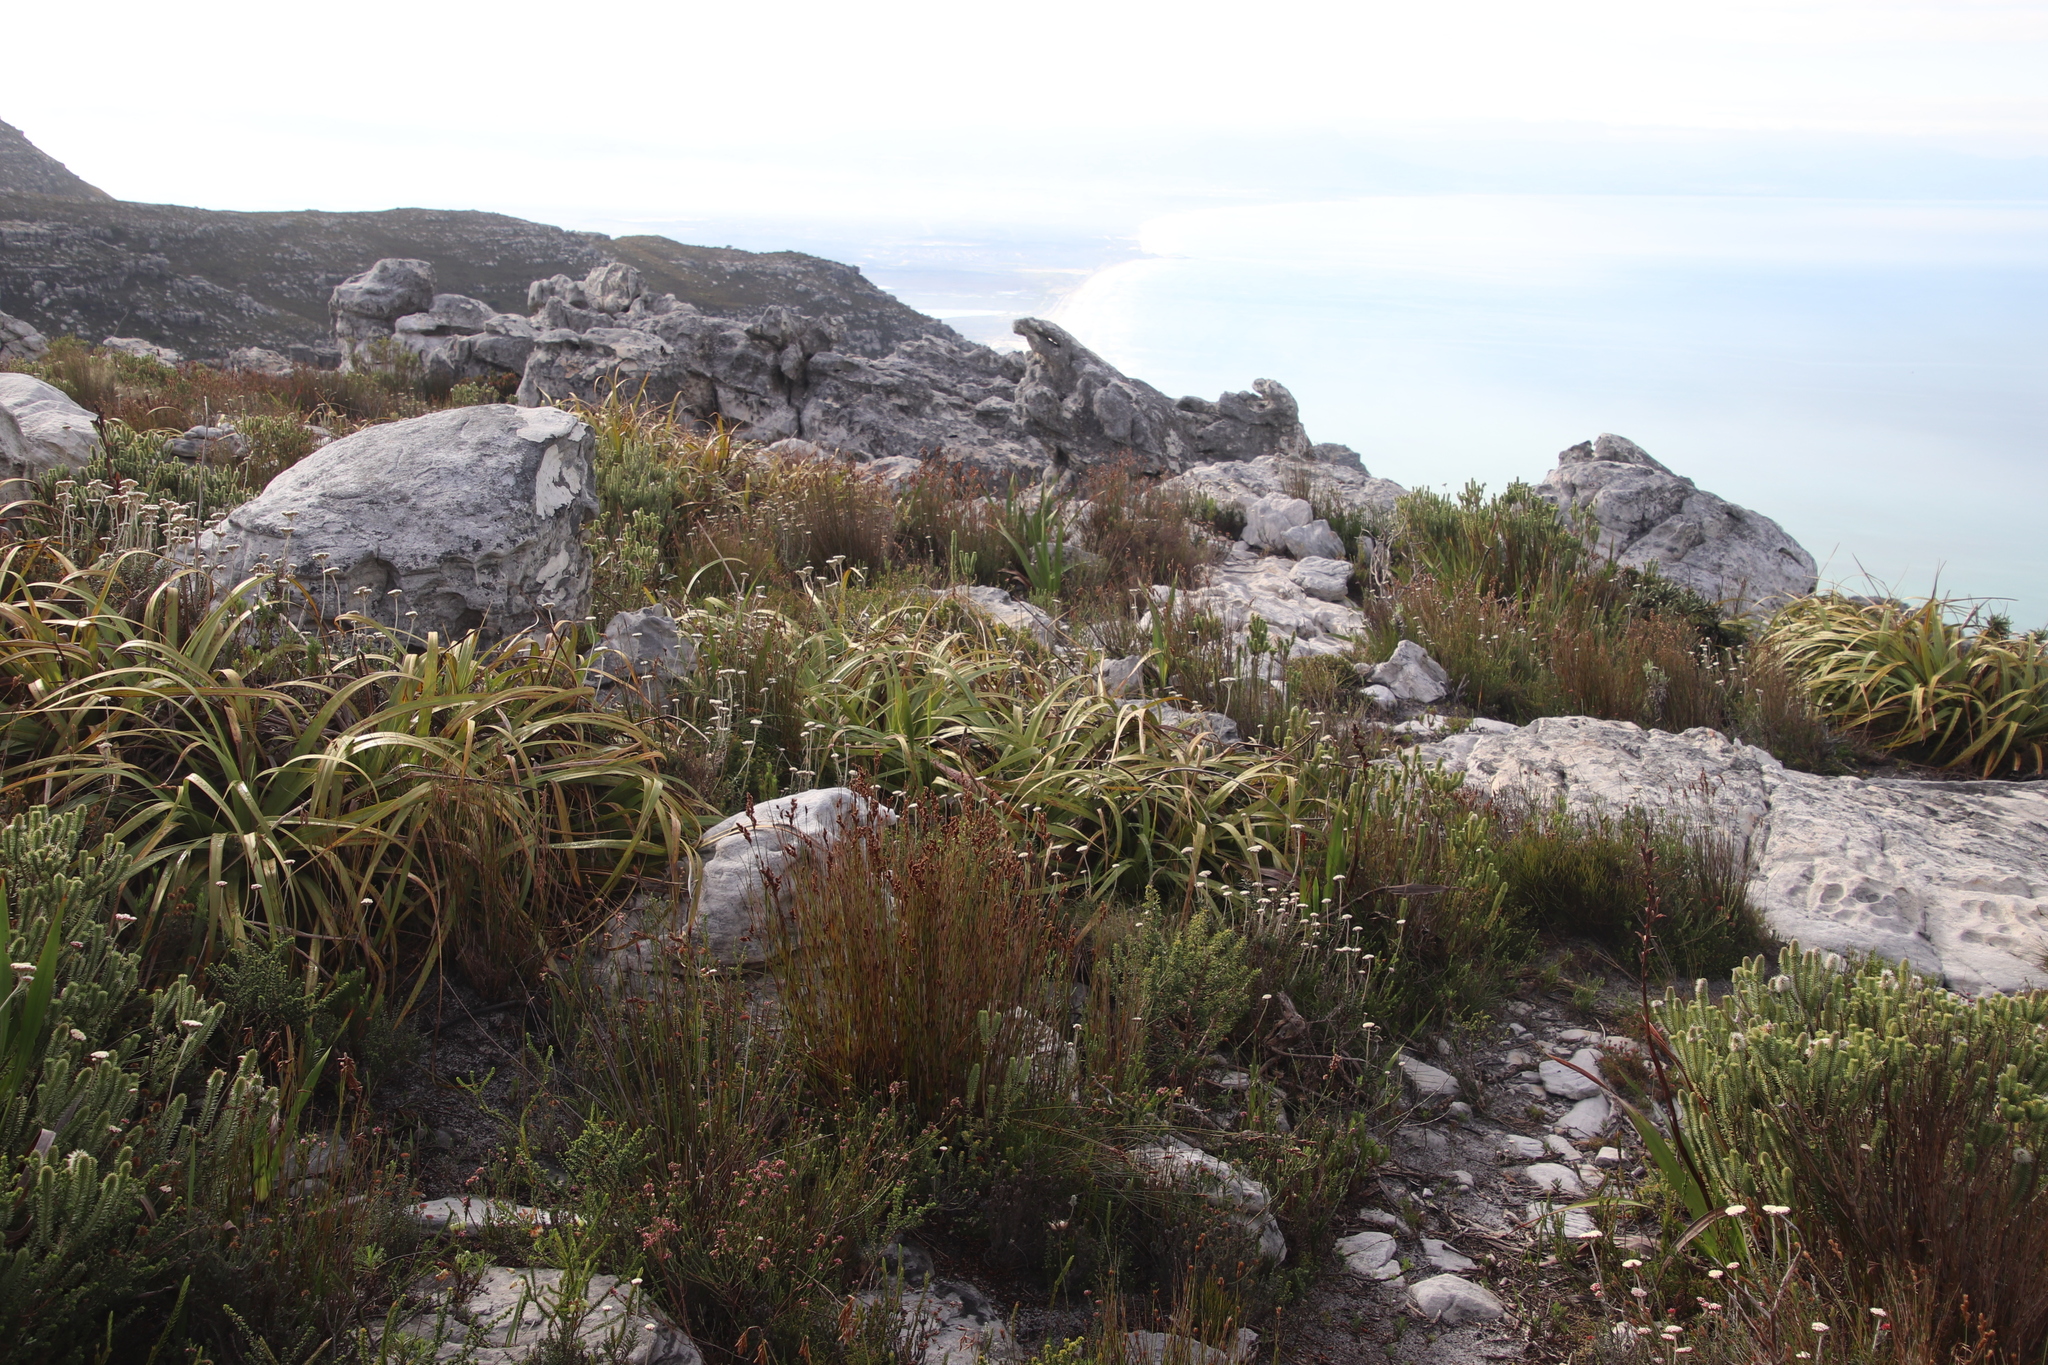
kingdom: Plantae
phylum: Tracheophyta
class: Liliopsida
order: Poales
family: Cyperaceae
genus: Tetraria
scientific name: Tetraria thermalis
